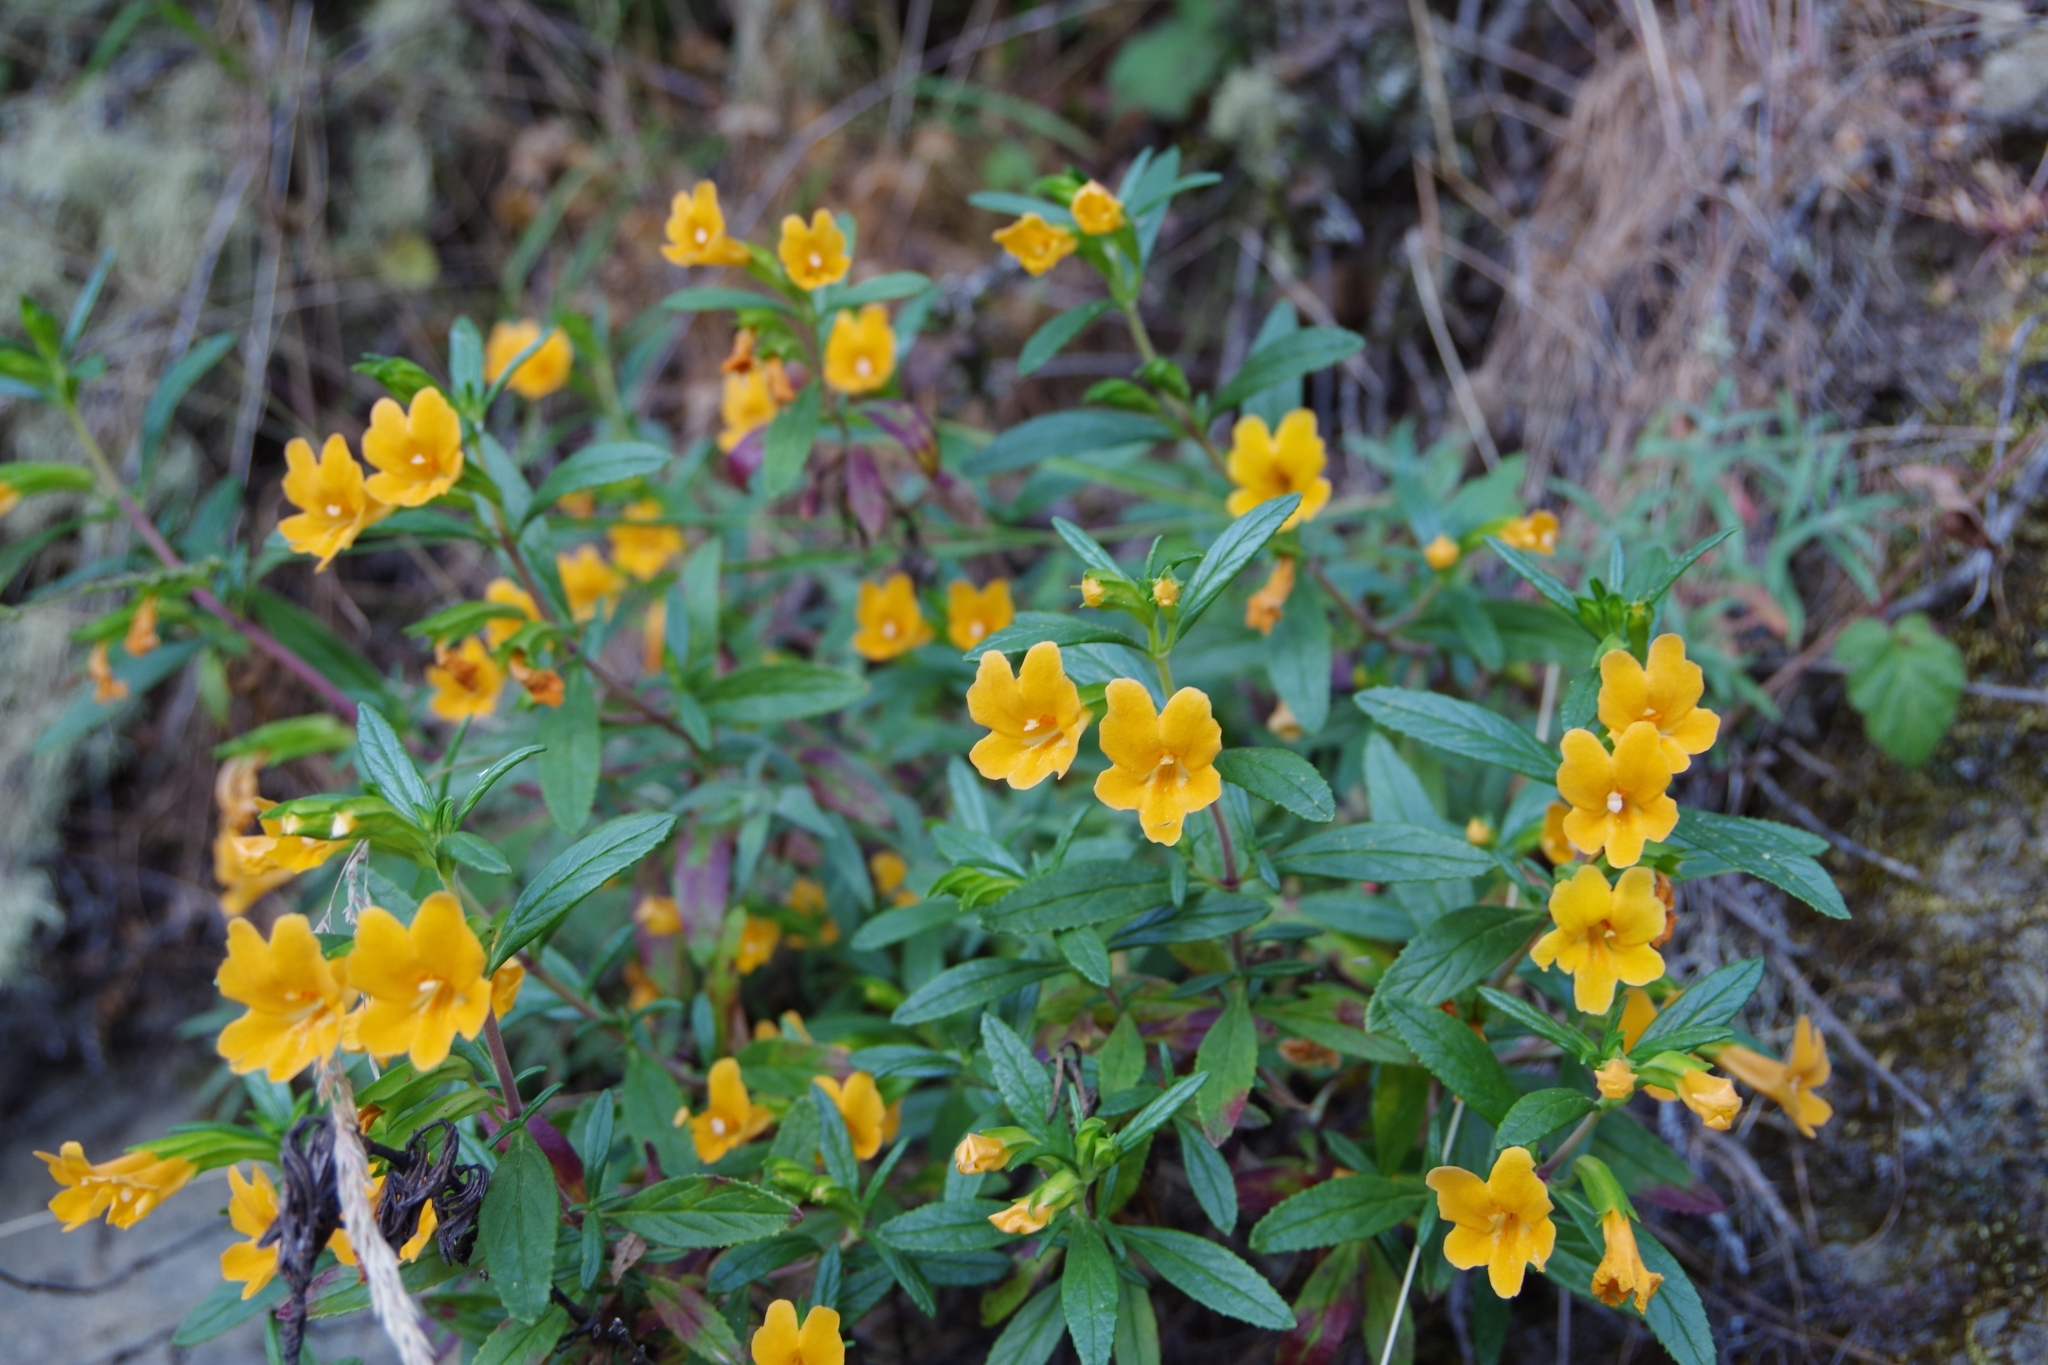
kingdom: Plantae
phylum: Tracheophyta
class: Magnoliopsida
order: Lamiales
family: Phrymaceae
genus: Diplacus
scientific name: Diplacus aurantiacus
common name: Bush monkey-flower
